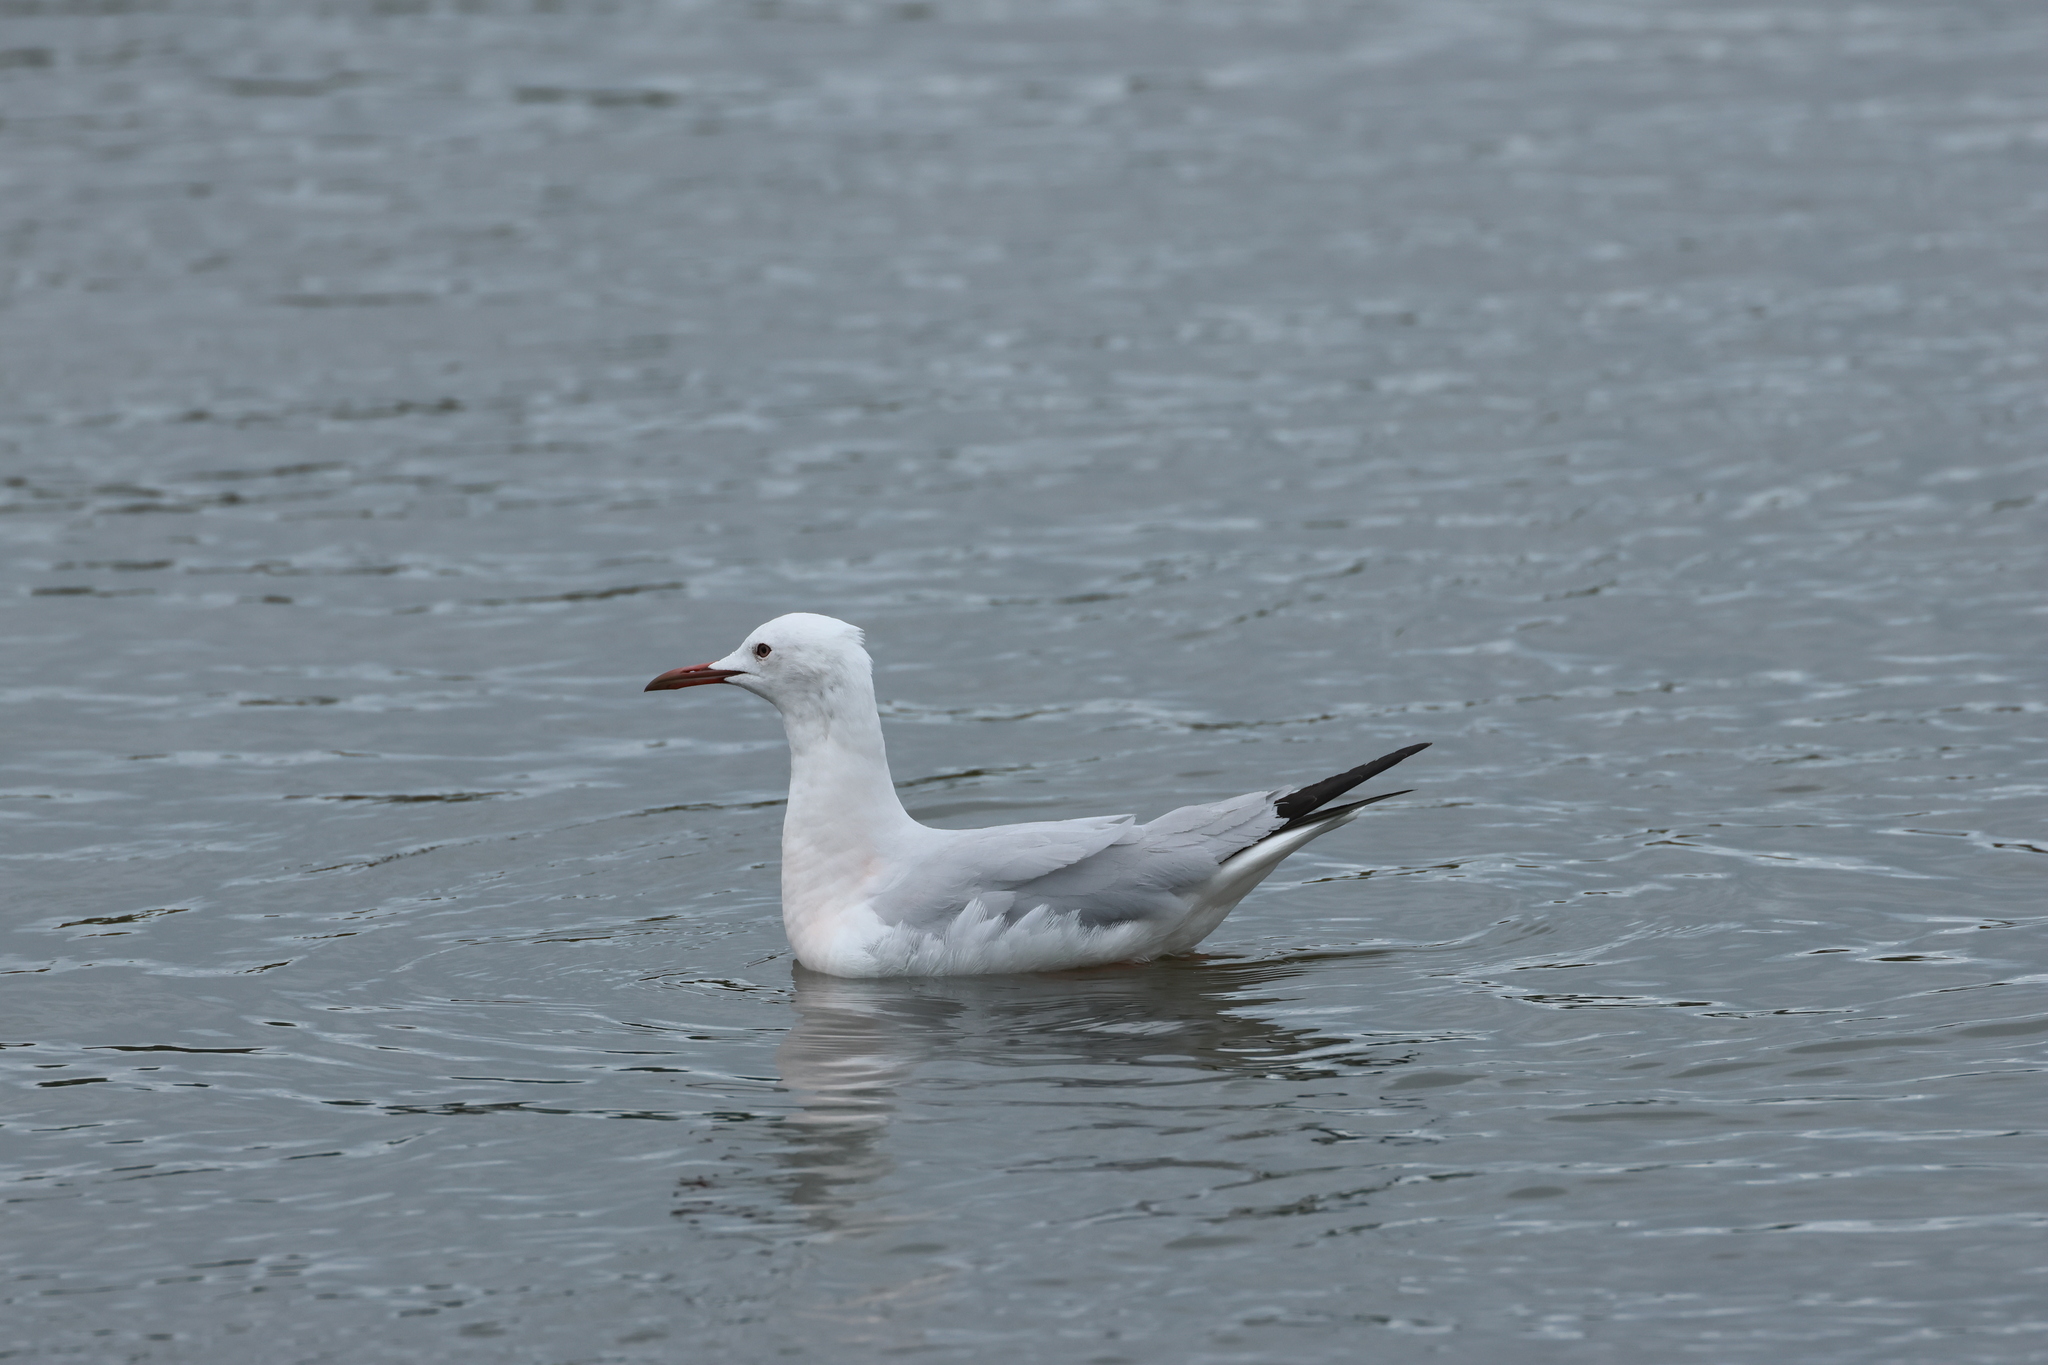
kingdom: Animalia
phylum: Chordata
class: Aves
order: Charadriiformes
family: Laridae
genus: Chroicocephalus
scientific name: Chroicocephalus genei
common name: Slender-billed gull
